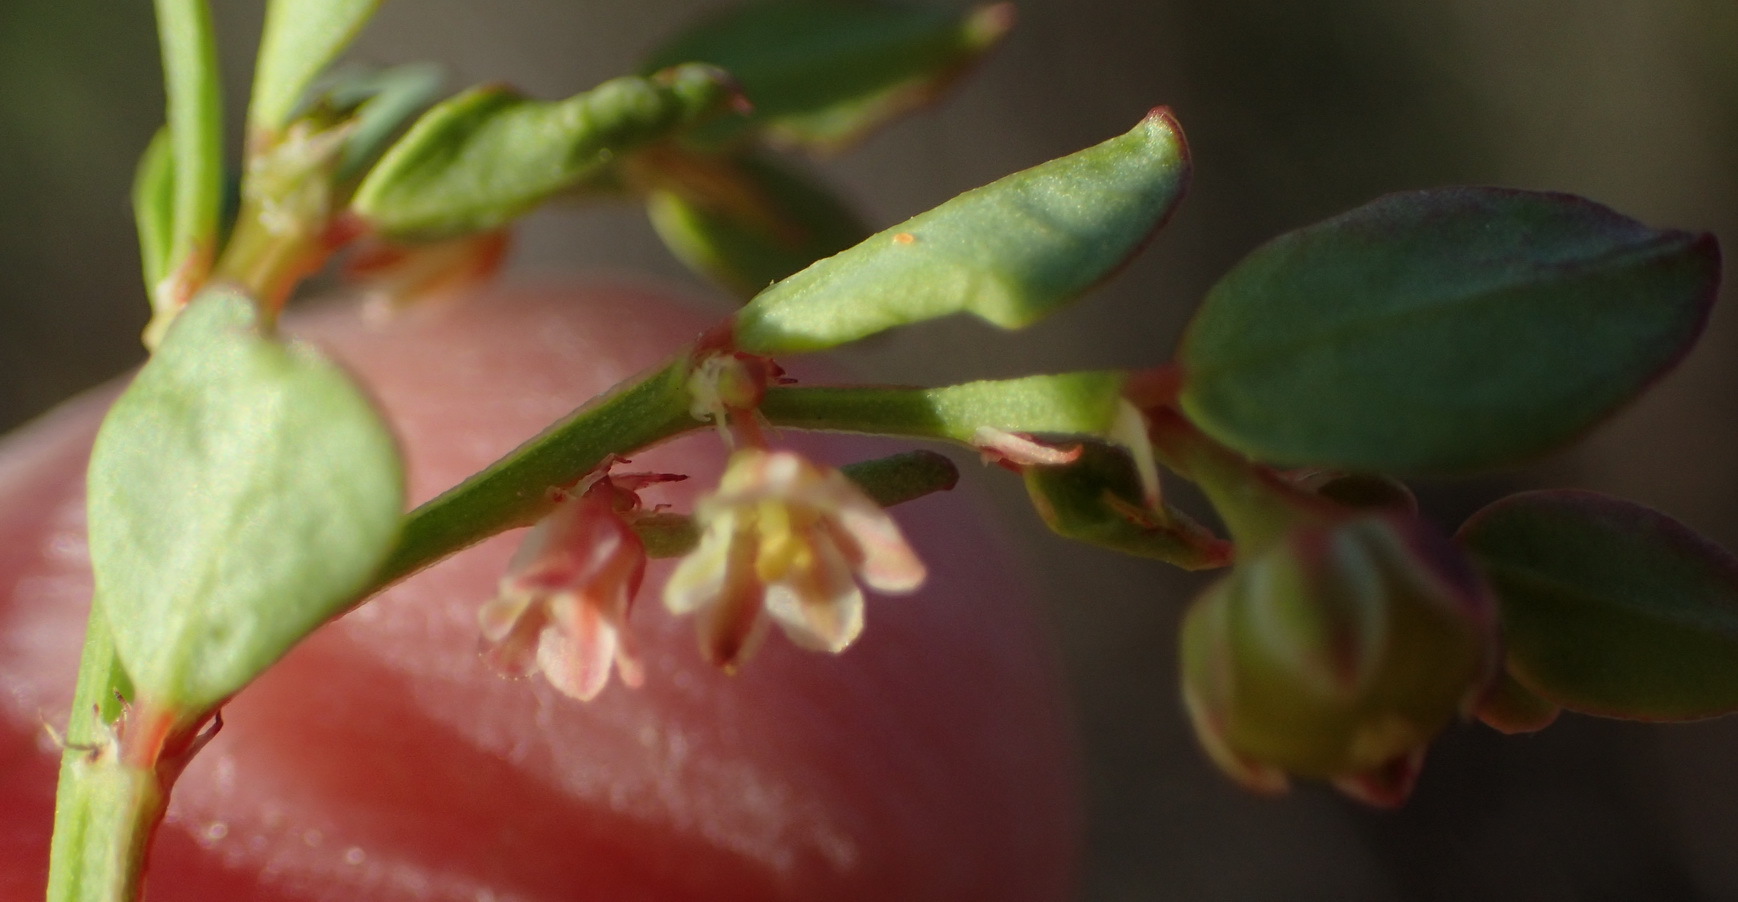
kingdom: Plantae
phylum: Tracheophyta
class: Magnoliopsida
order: Malpighiales
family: Phyllanthaceae
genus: Phyllanthus
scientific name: Phyllanthus
